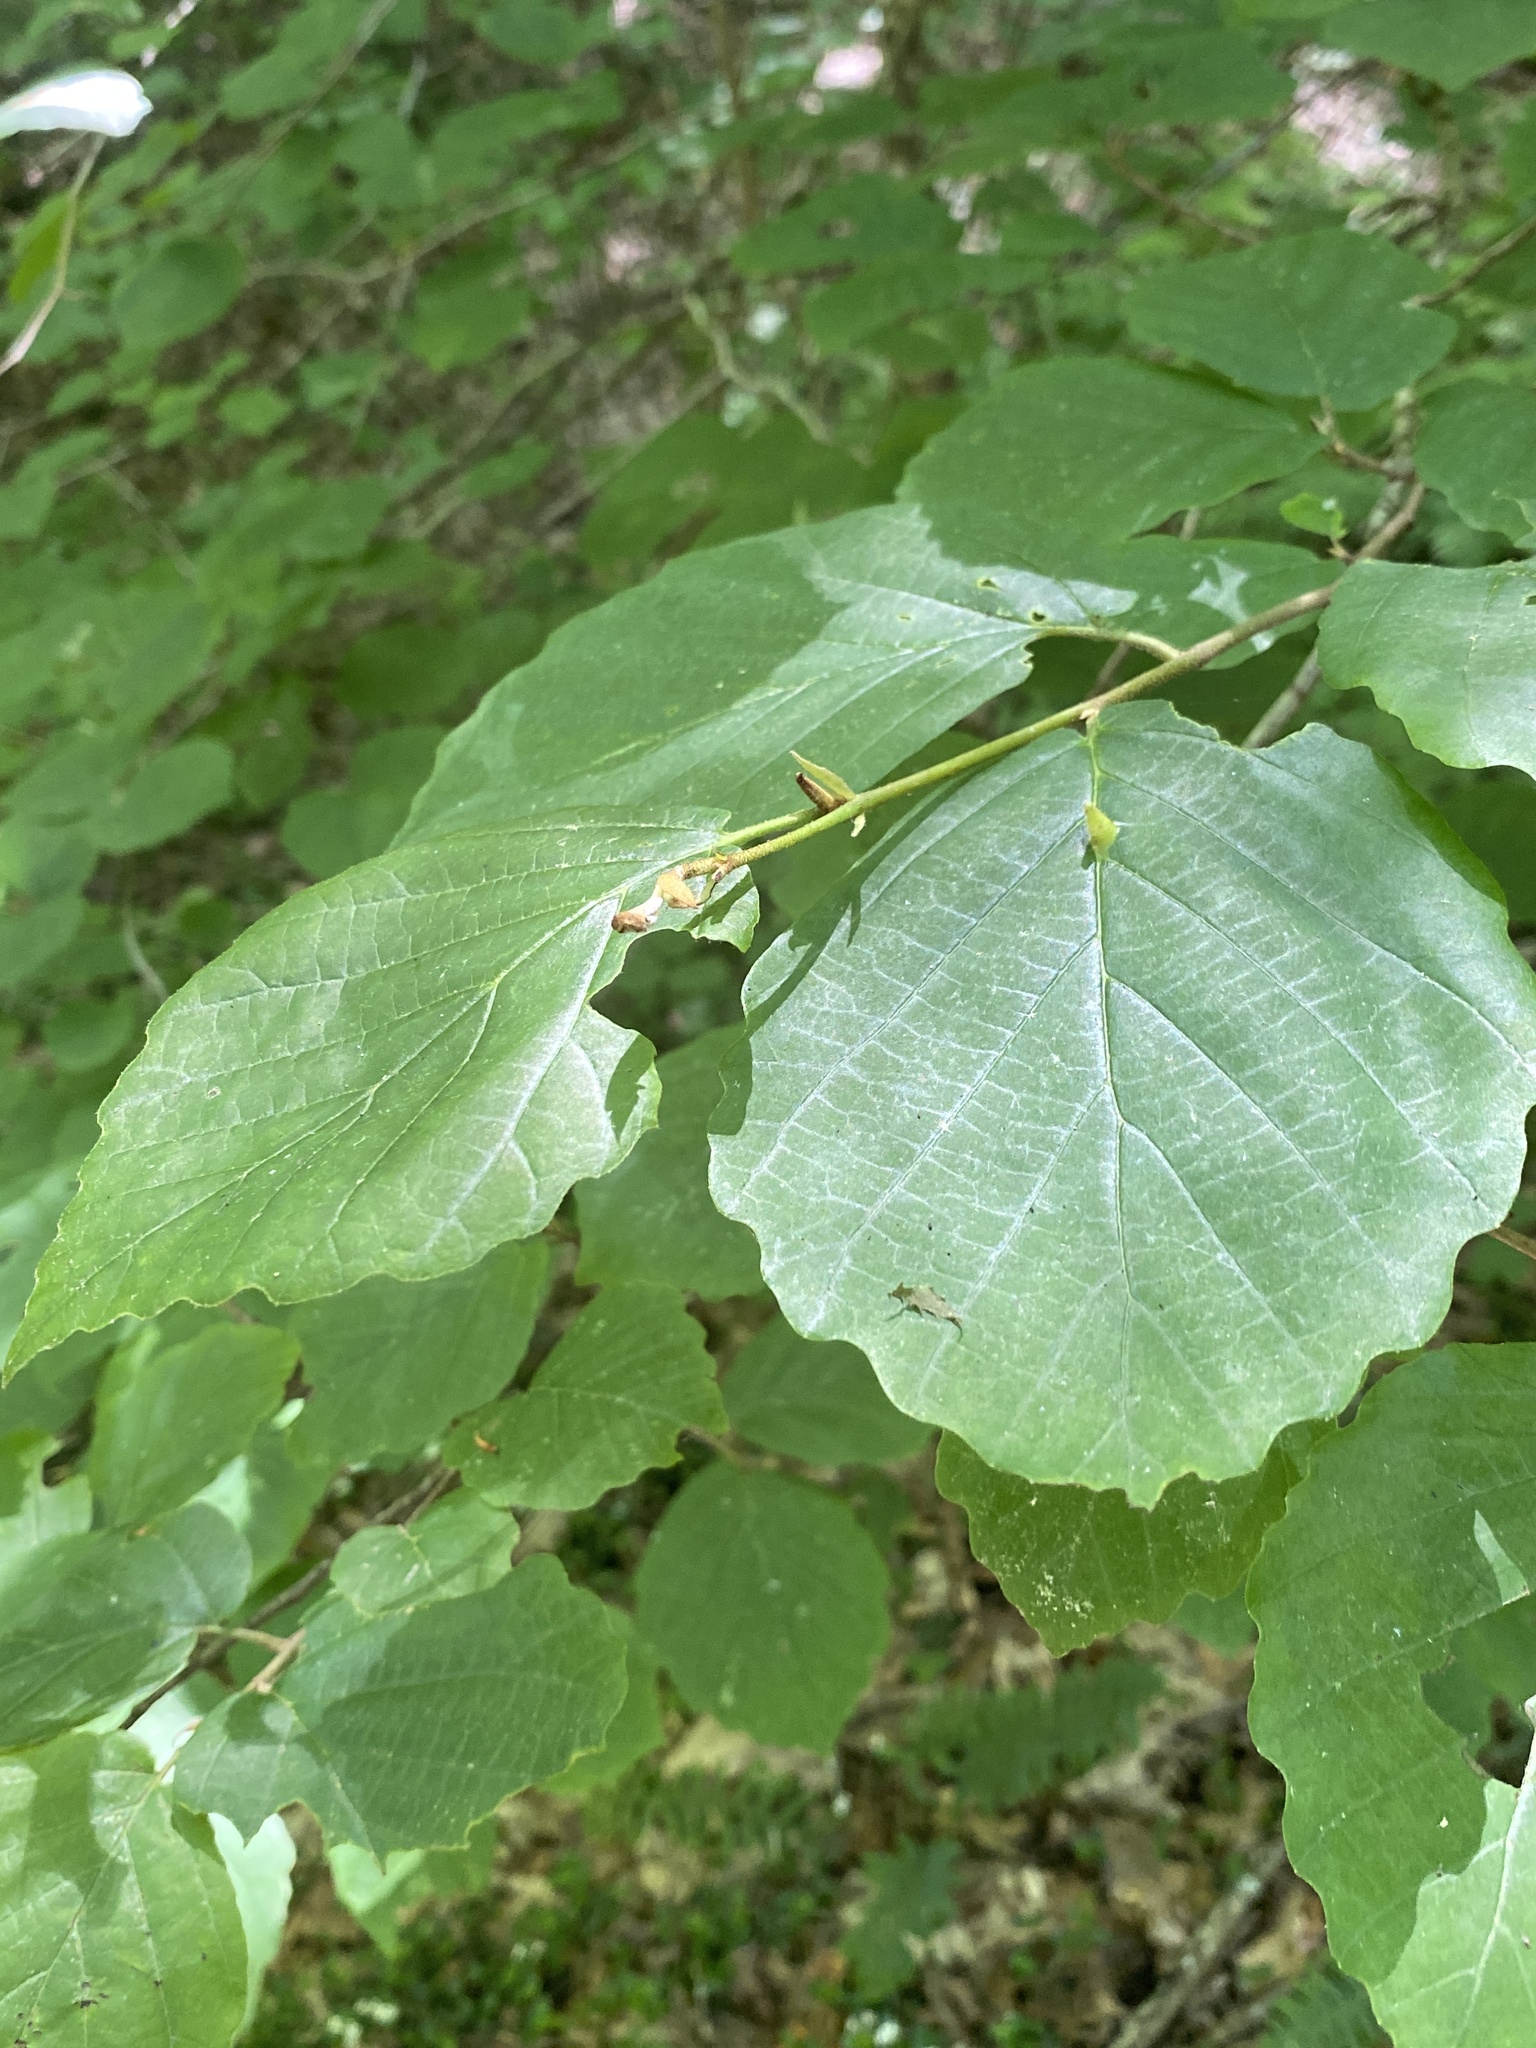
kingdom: Plantae
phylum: Tracheophyta
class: Magnoliopsida
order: Saxifragales
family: Hamamelidaceae
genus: Hamamelis
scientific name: Hamamelis virginiana
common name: Witch-hazel
